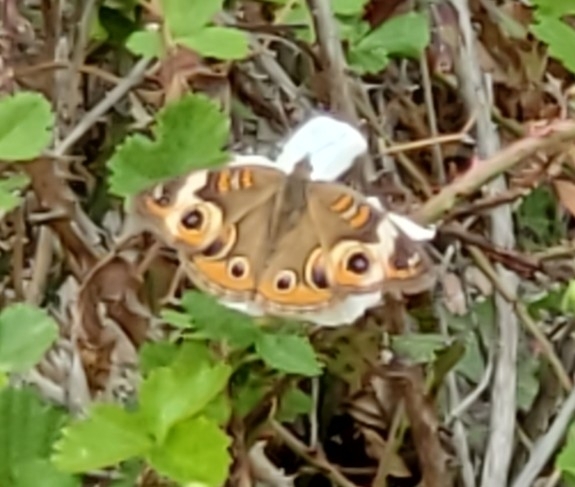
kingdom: Animalia
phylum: Arthropoda
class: Insecta
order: Lepidoptera
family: Nymphalidae
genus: Junonia
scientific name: Junonia coenia
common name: Common buckeye
